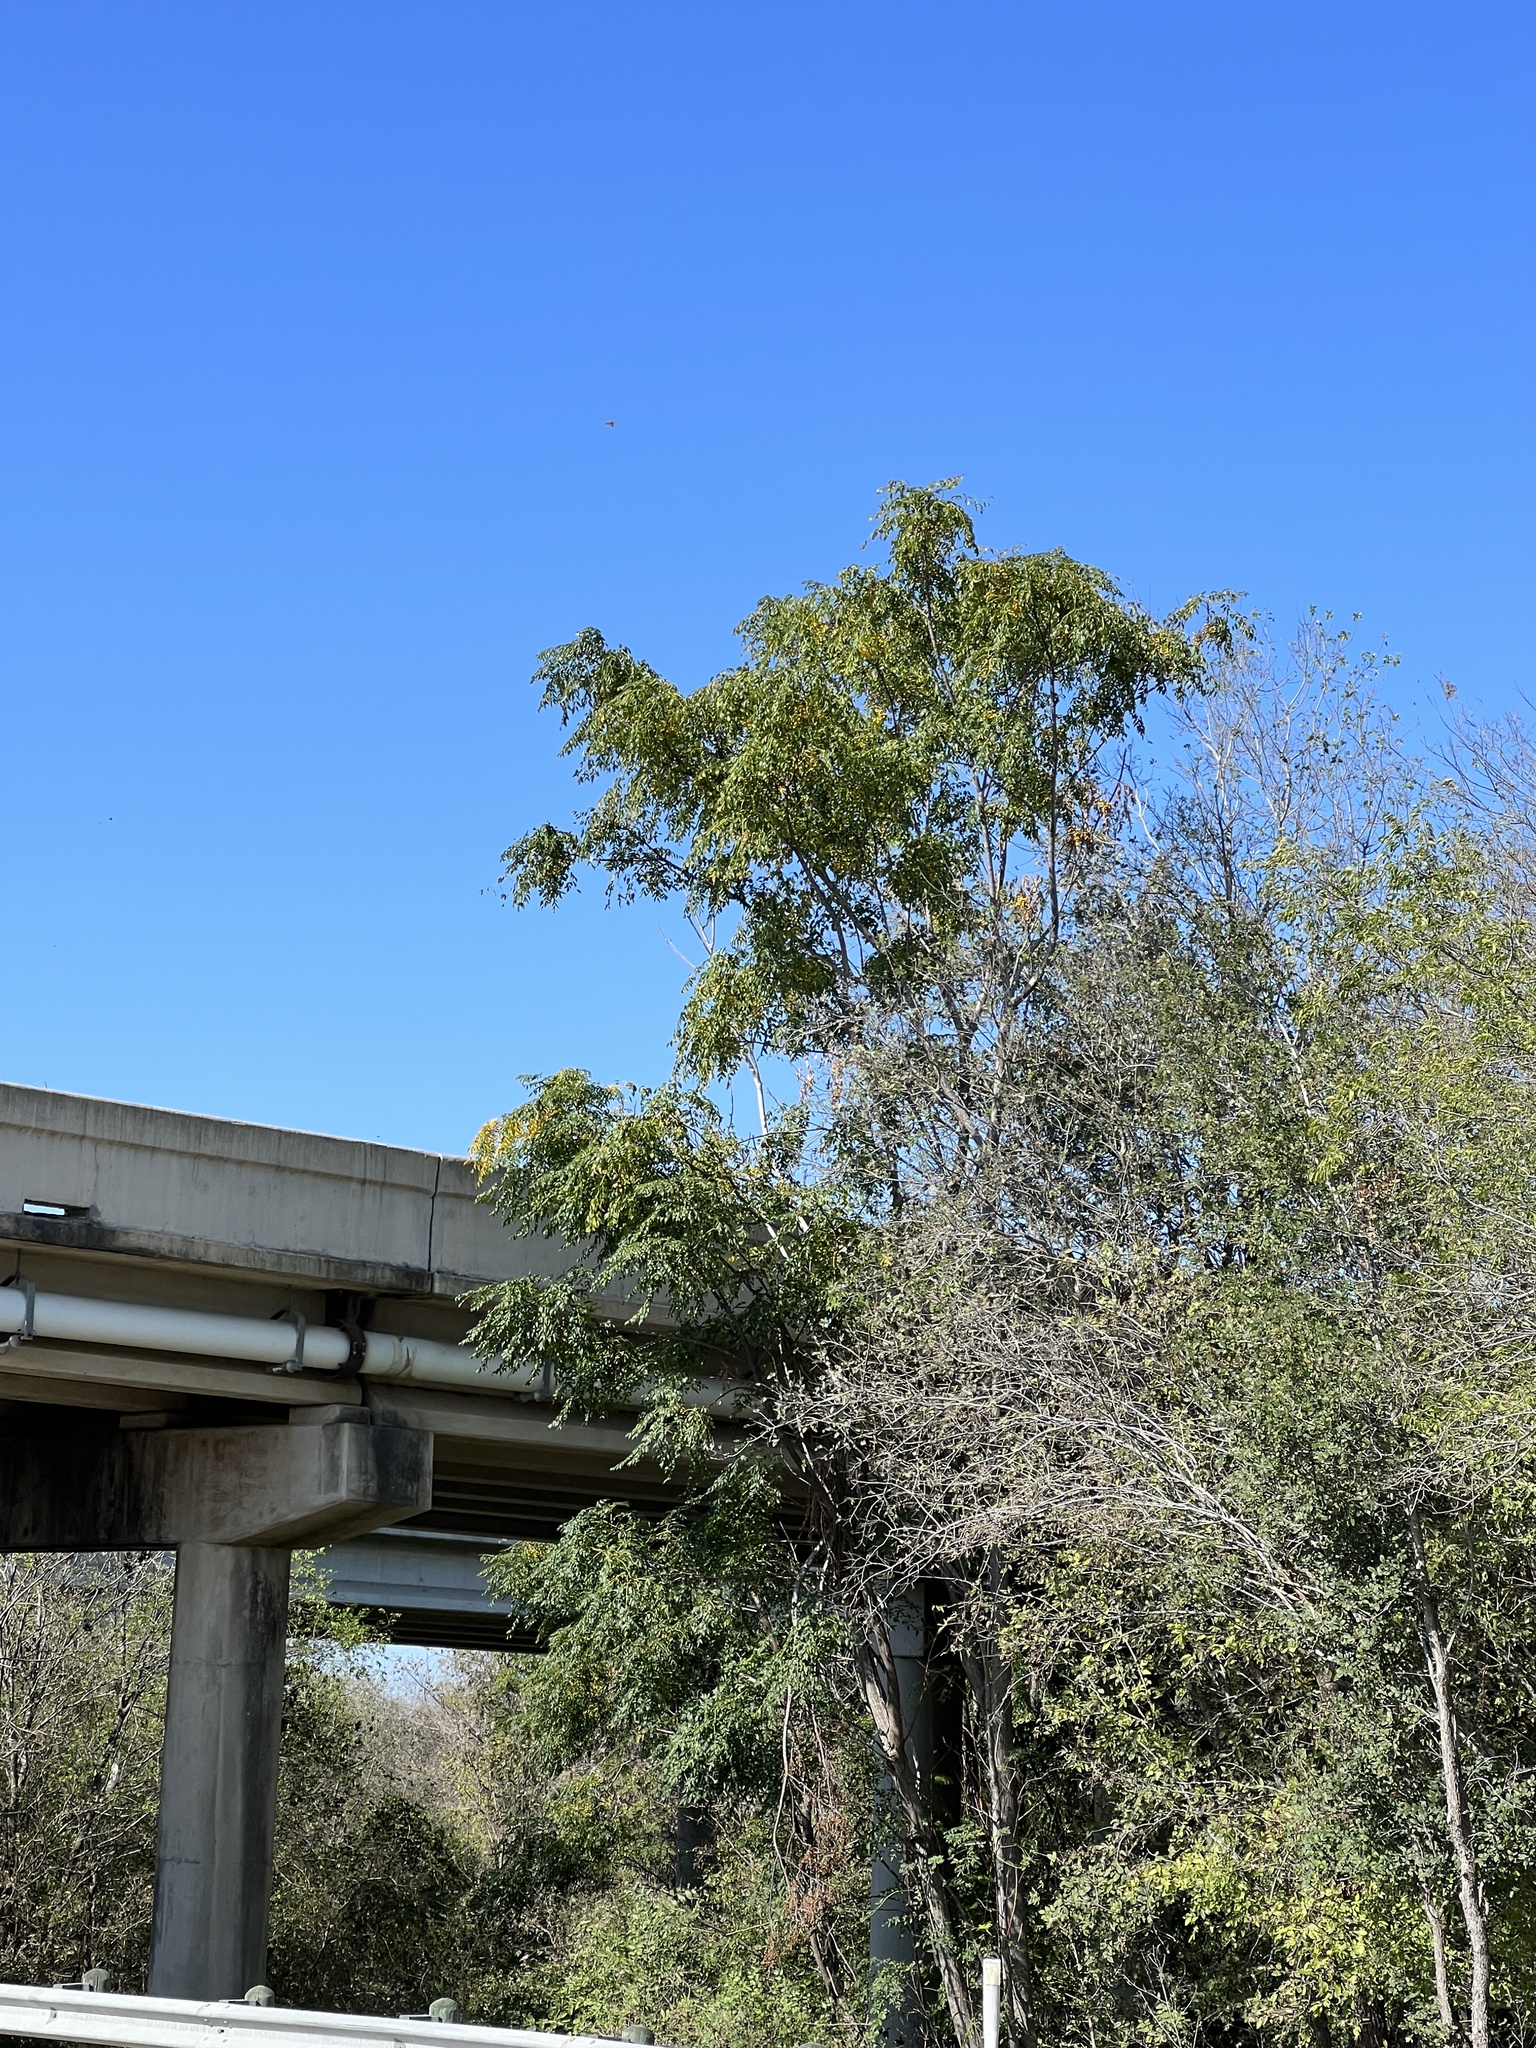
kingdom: Plantae
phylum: Tracheophyta
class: Magnoliopsida
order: Sapindales
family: Meliaceae
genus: Melia
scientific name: Melia azedarach
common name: Chinaberrytree
